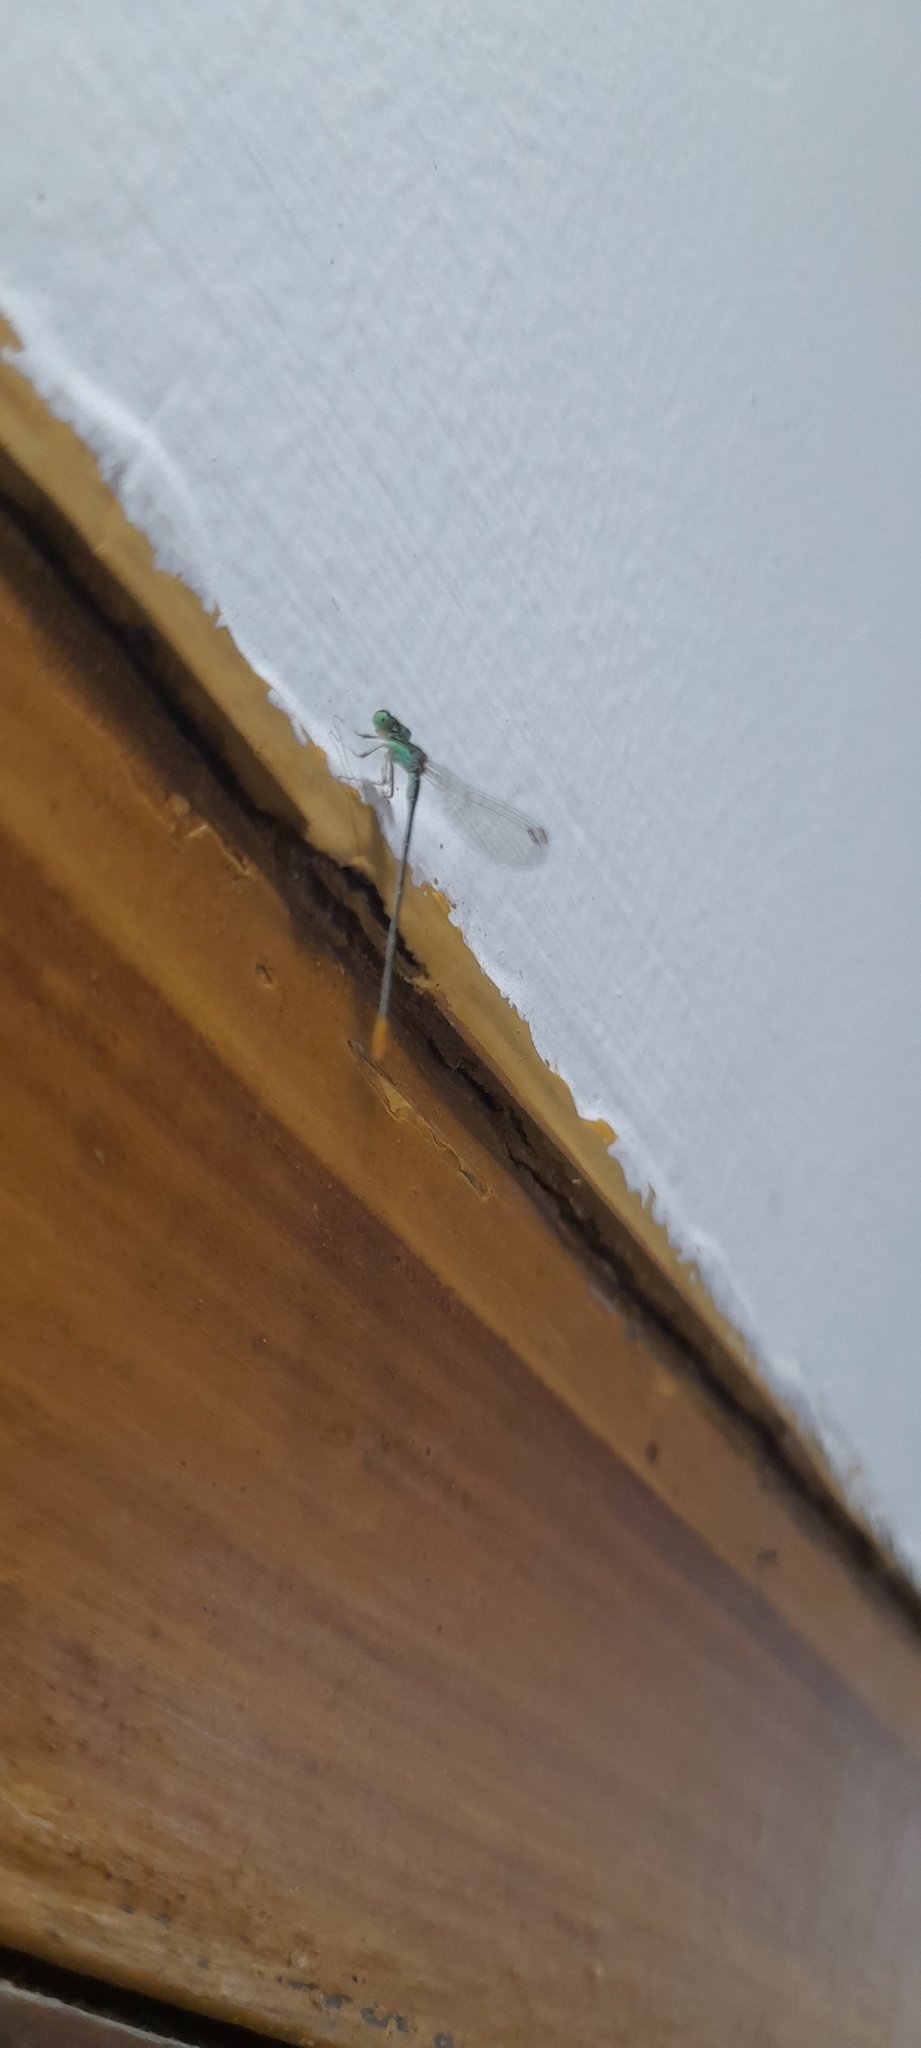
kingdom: Animalia
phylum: Arthropoda
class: Insecta
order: Odonata
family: Coenagrionidae
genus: Agriocnemis
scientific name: Agriocnemis pygmaea
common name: Pygmy wisp
